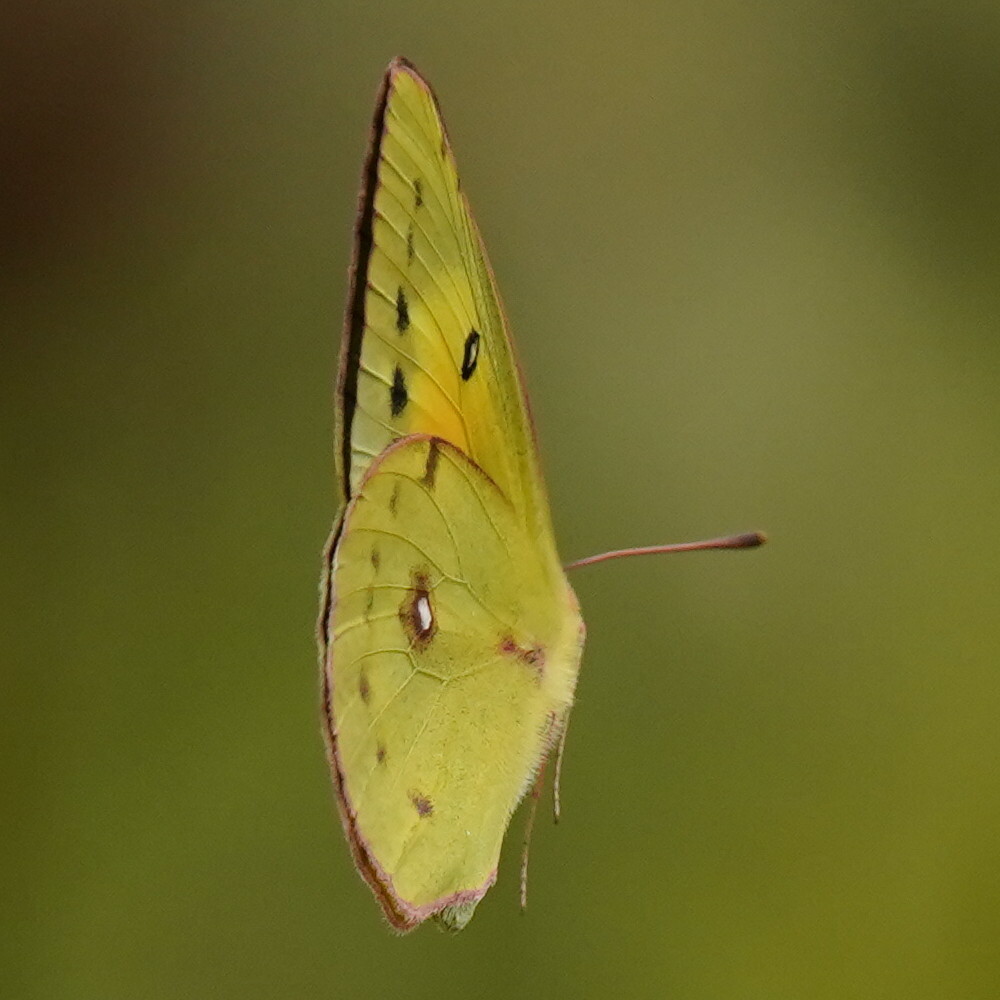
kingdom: Animalia
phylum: Arthropoda
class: Insecta
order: Lepidoptera
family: Pieridae
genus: Colias
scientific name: Colias eurytheme
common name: Alfalfa butterfly
